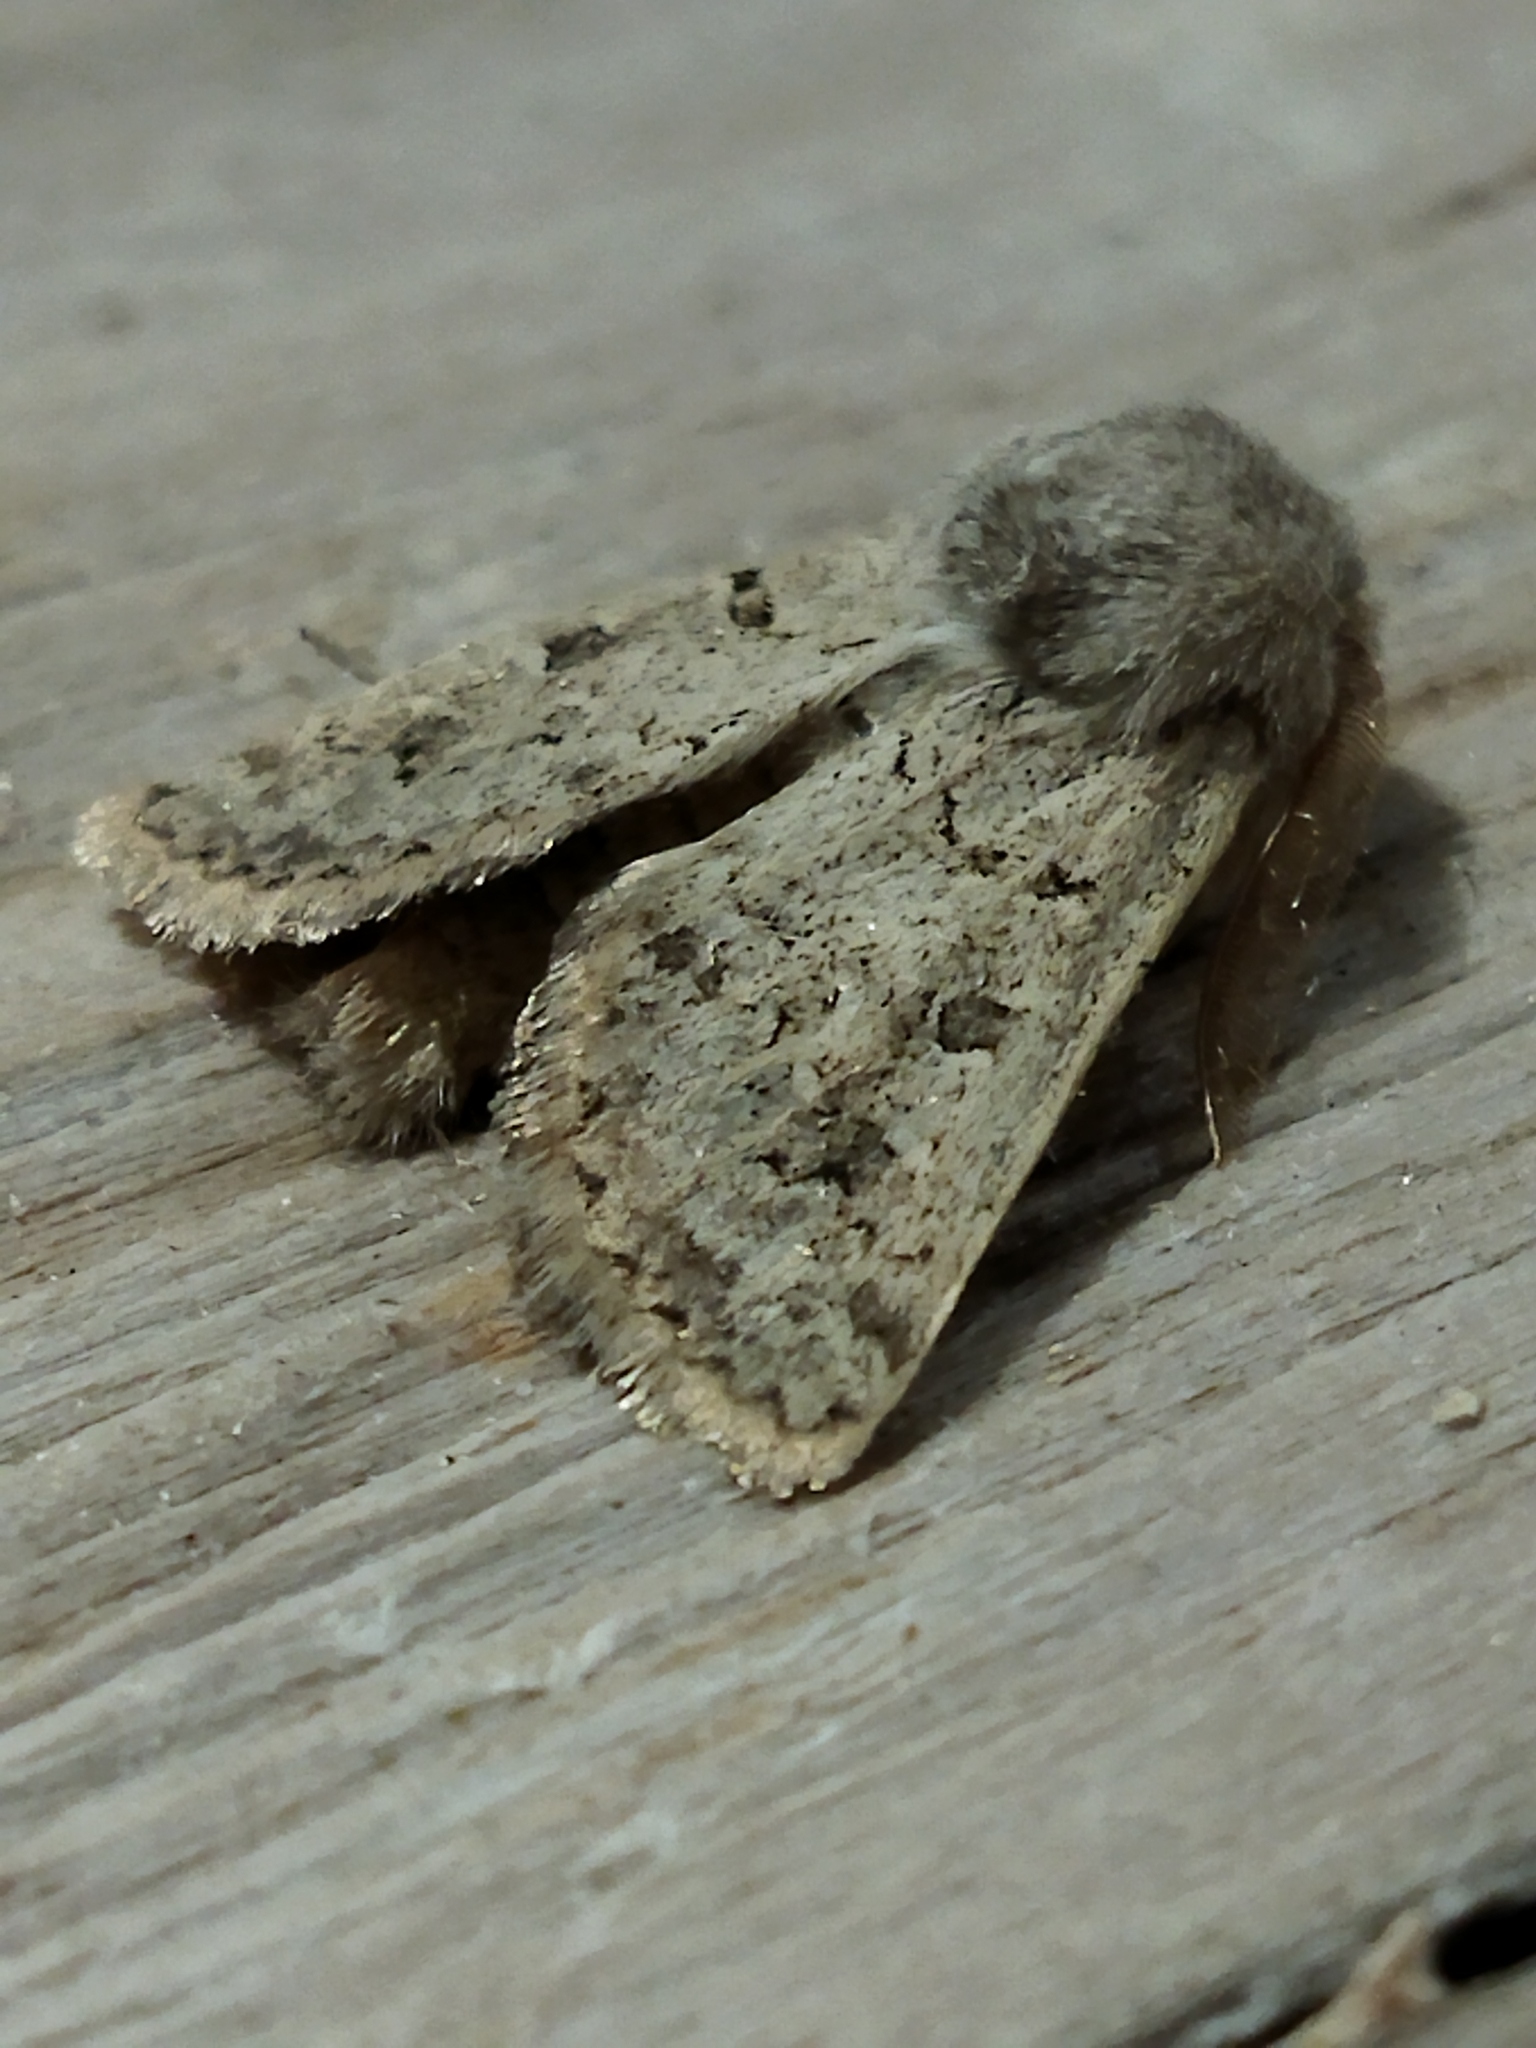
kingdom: Animalia
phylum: Arthropoda
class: Insecta
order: Lepidoptera
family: Noctuidae
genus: Episema
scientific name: Episema lederi
